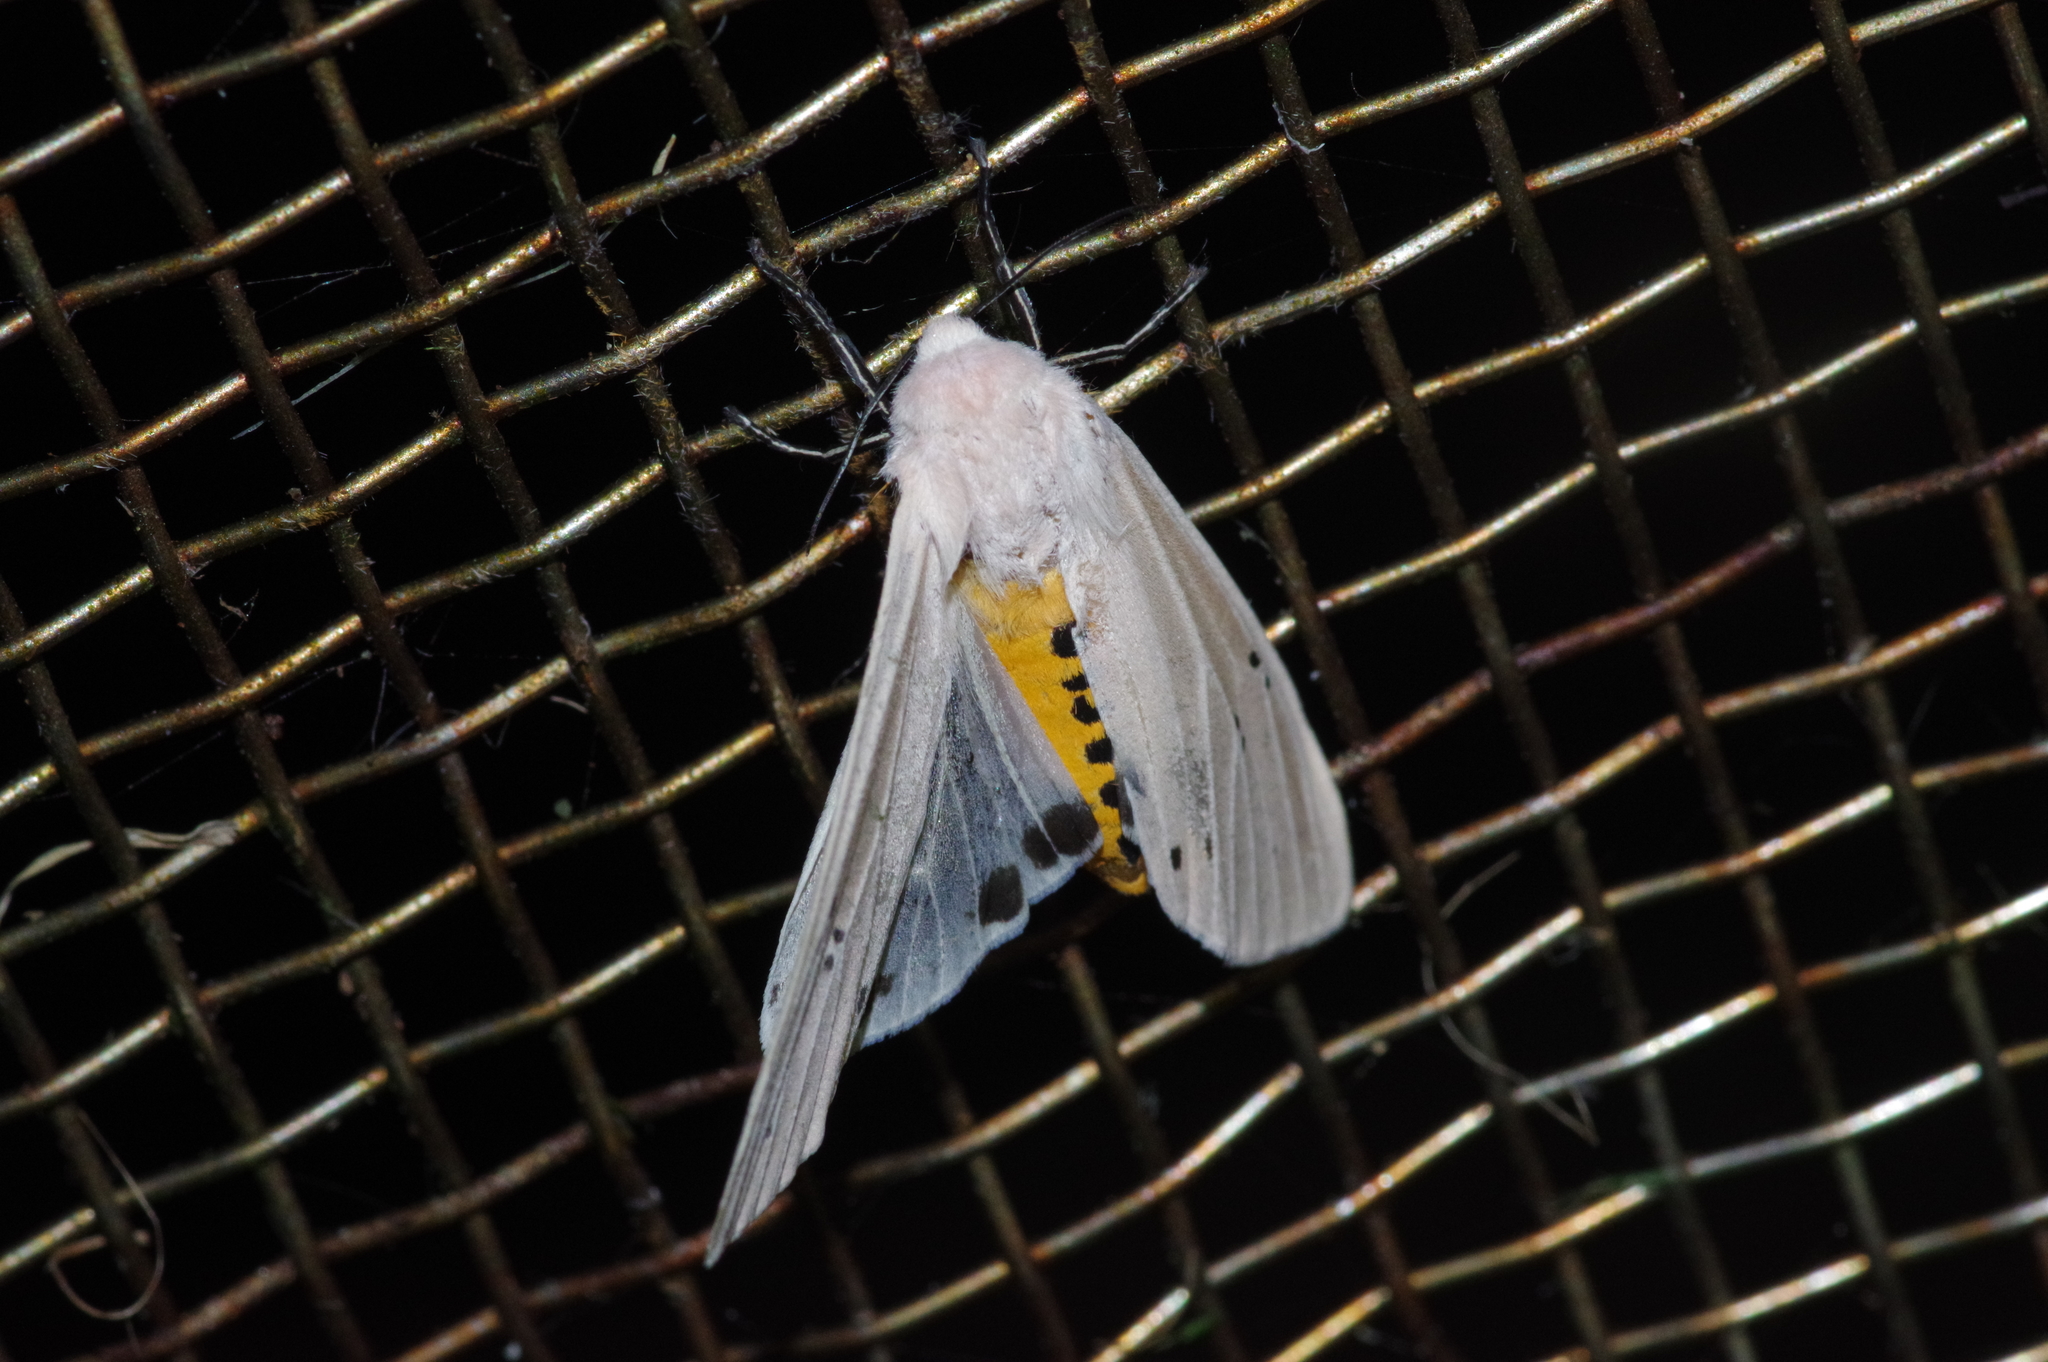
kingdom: Animalia
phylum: Arthropoda
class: Insecta
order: Lepidoptera
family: Erebidae
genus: Creatonotos
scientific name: Creatonotos transiens
